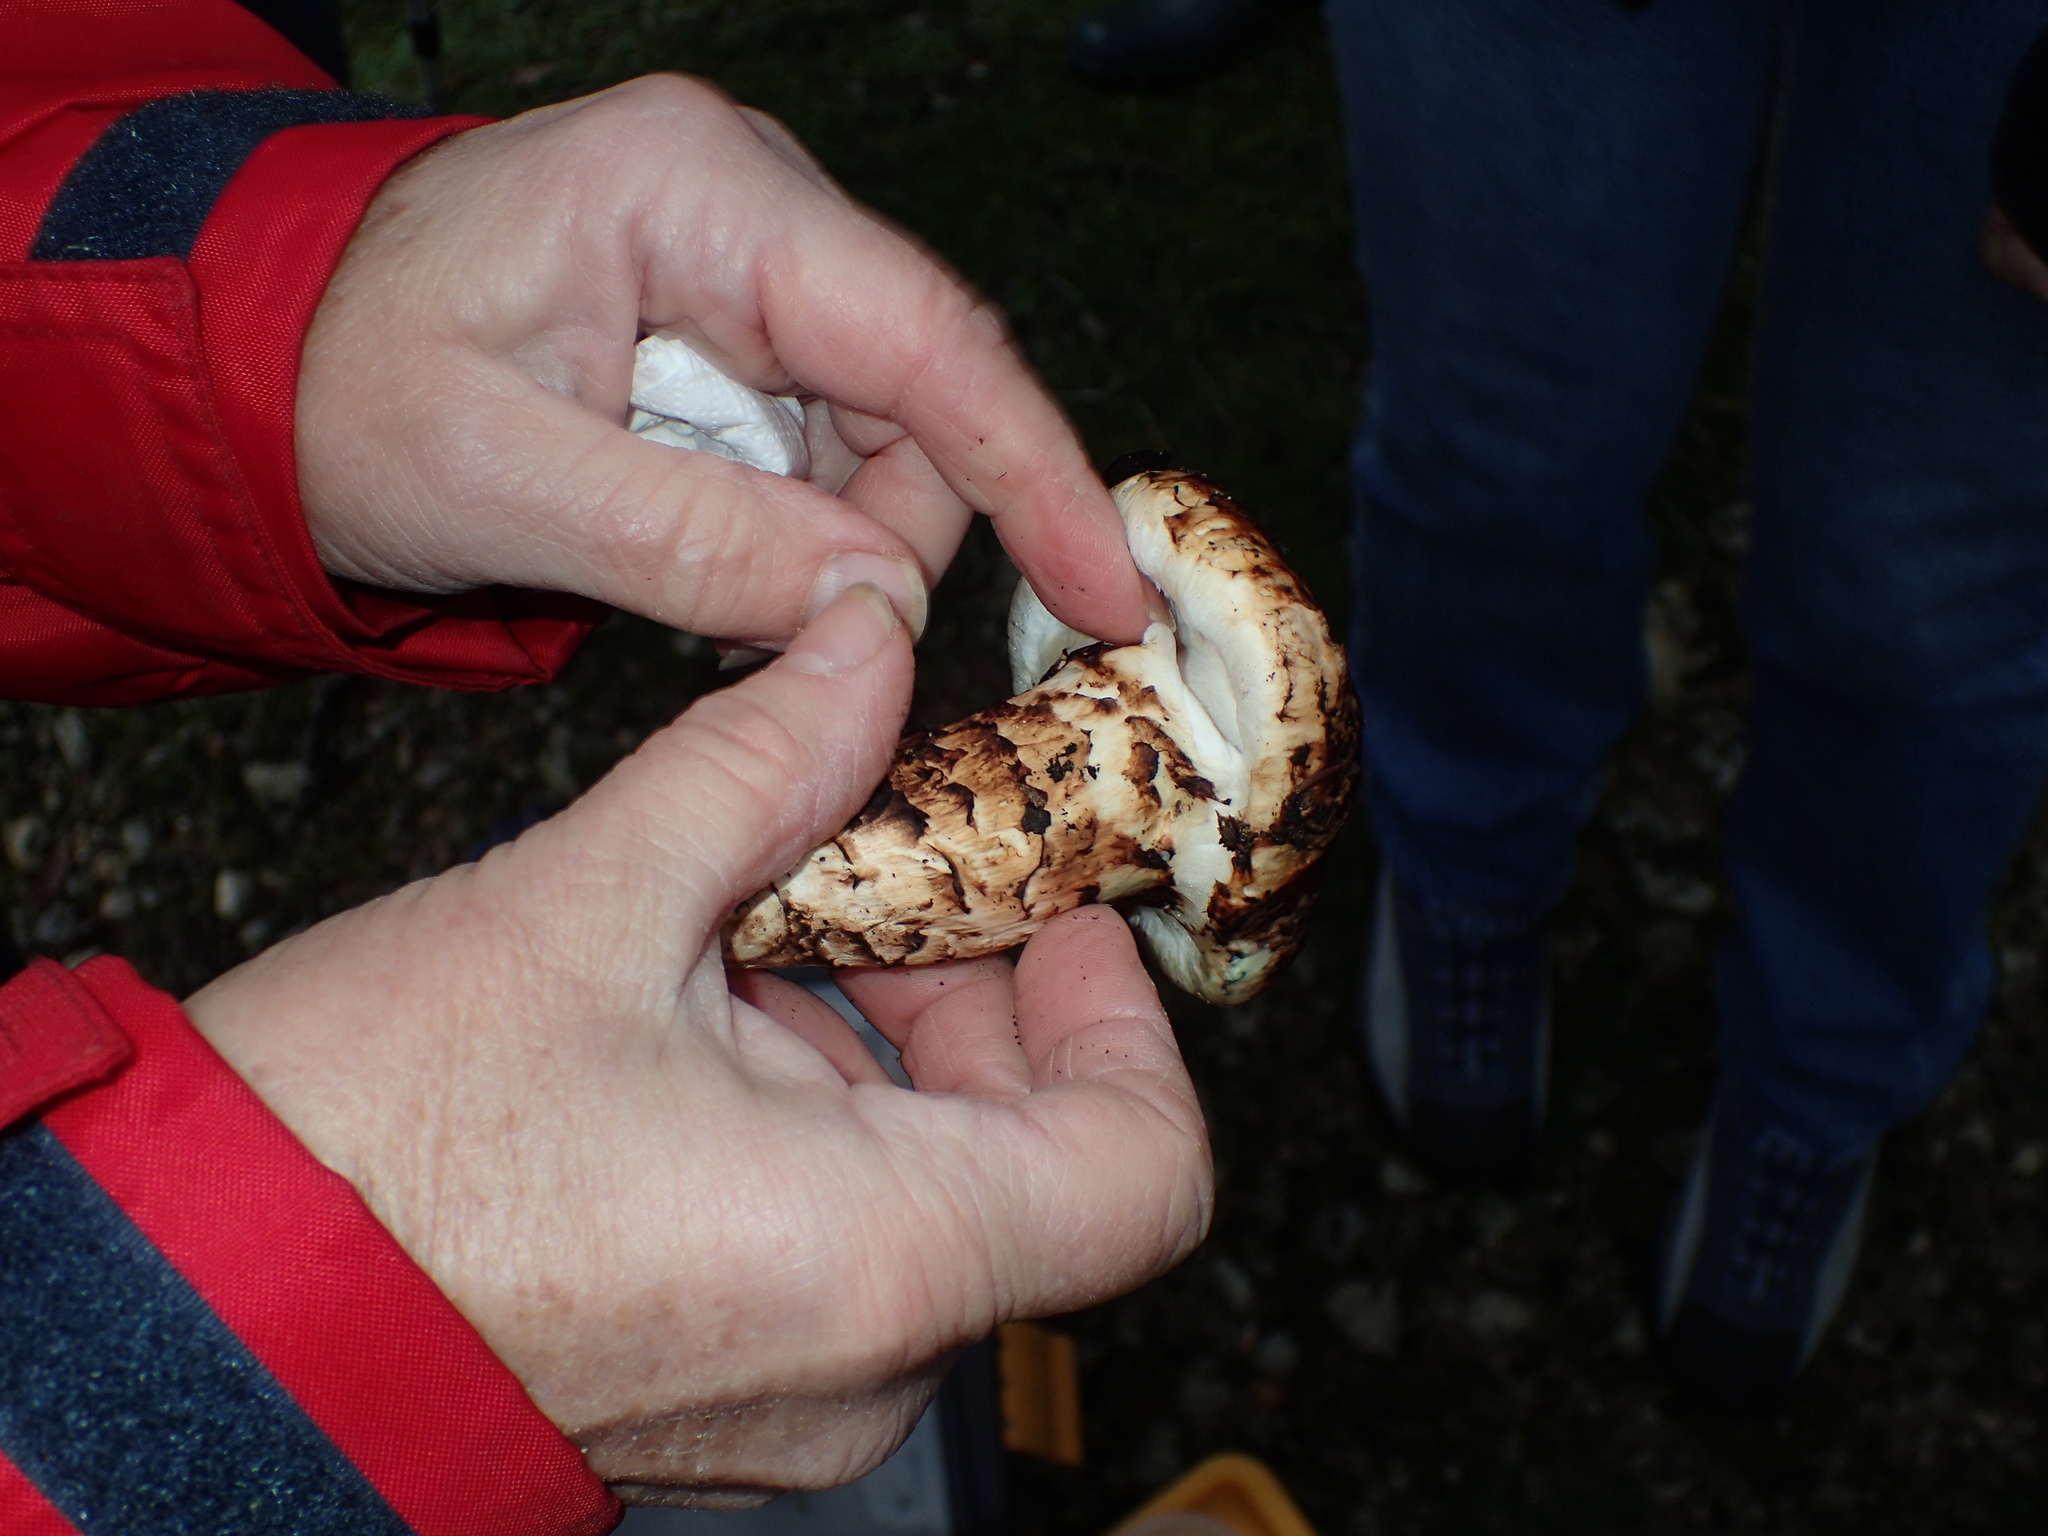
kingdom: Fungi
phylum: Basidiomycota
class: Agaricomycetes
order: Agaricales
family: Tricholomataceae
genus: Tricholoma
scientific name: Tricholoma caligatum
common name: True booted knight
